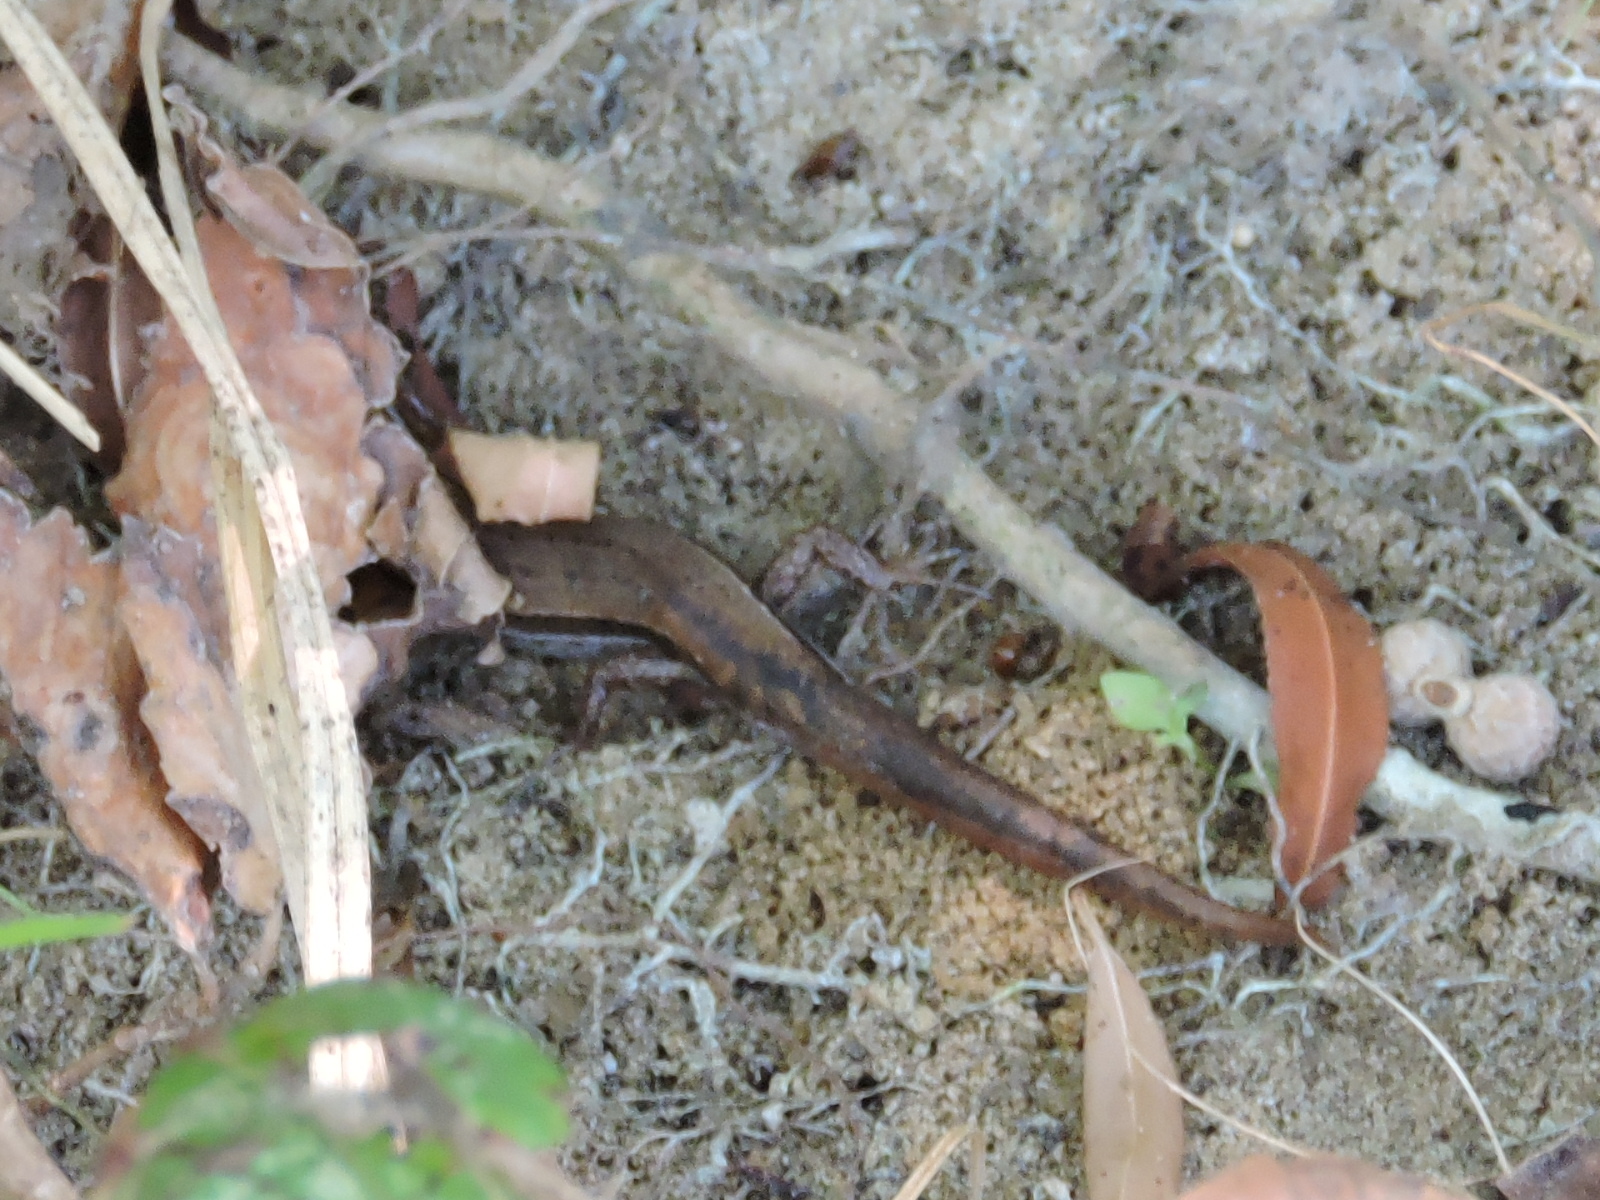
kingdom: Animalia
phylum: Chordata
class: Squamata
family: Scincidae
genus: Scincella
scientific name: Scincella lateralis
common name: Ground skink
